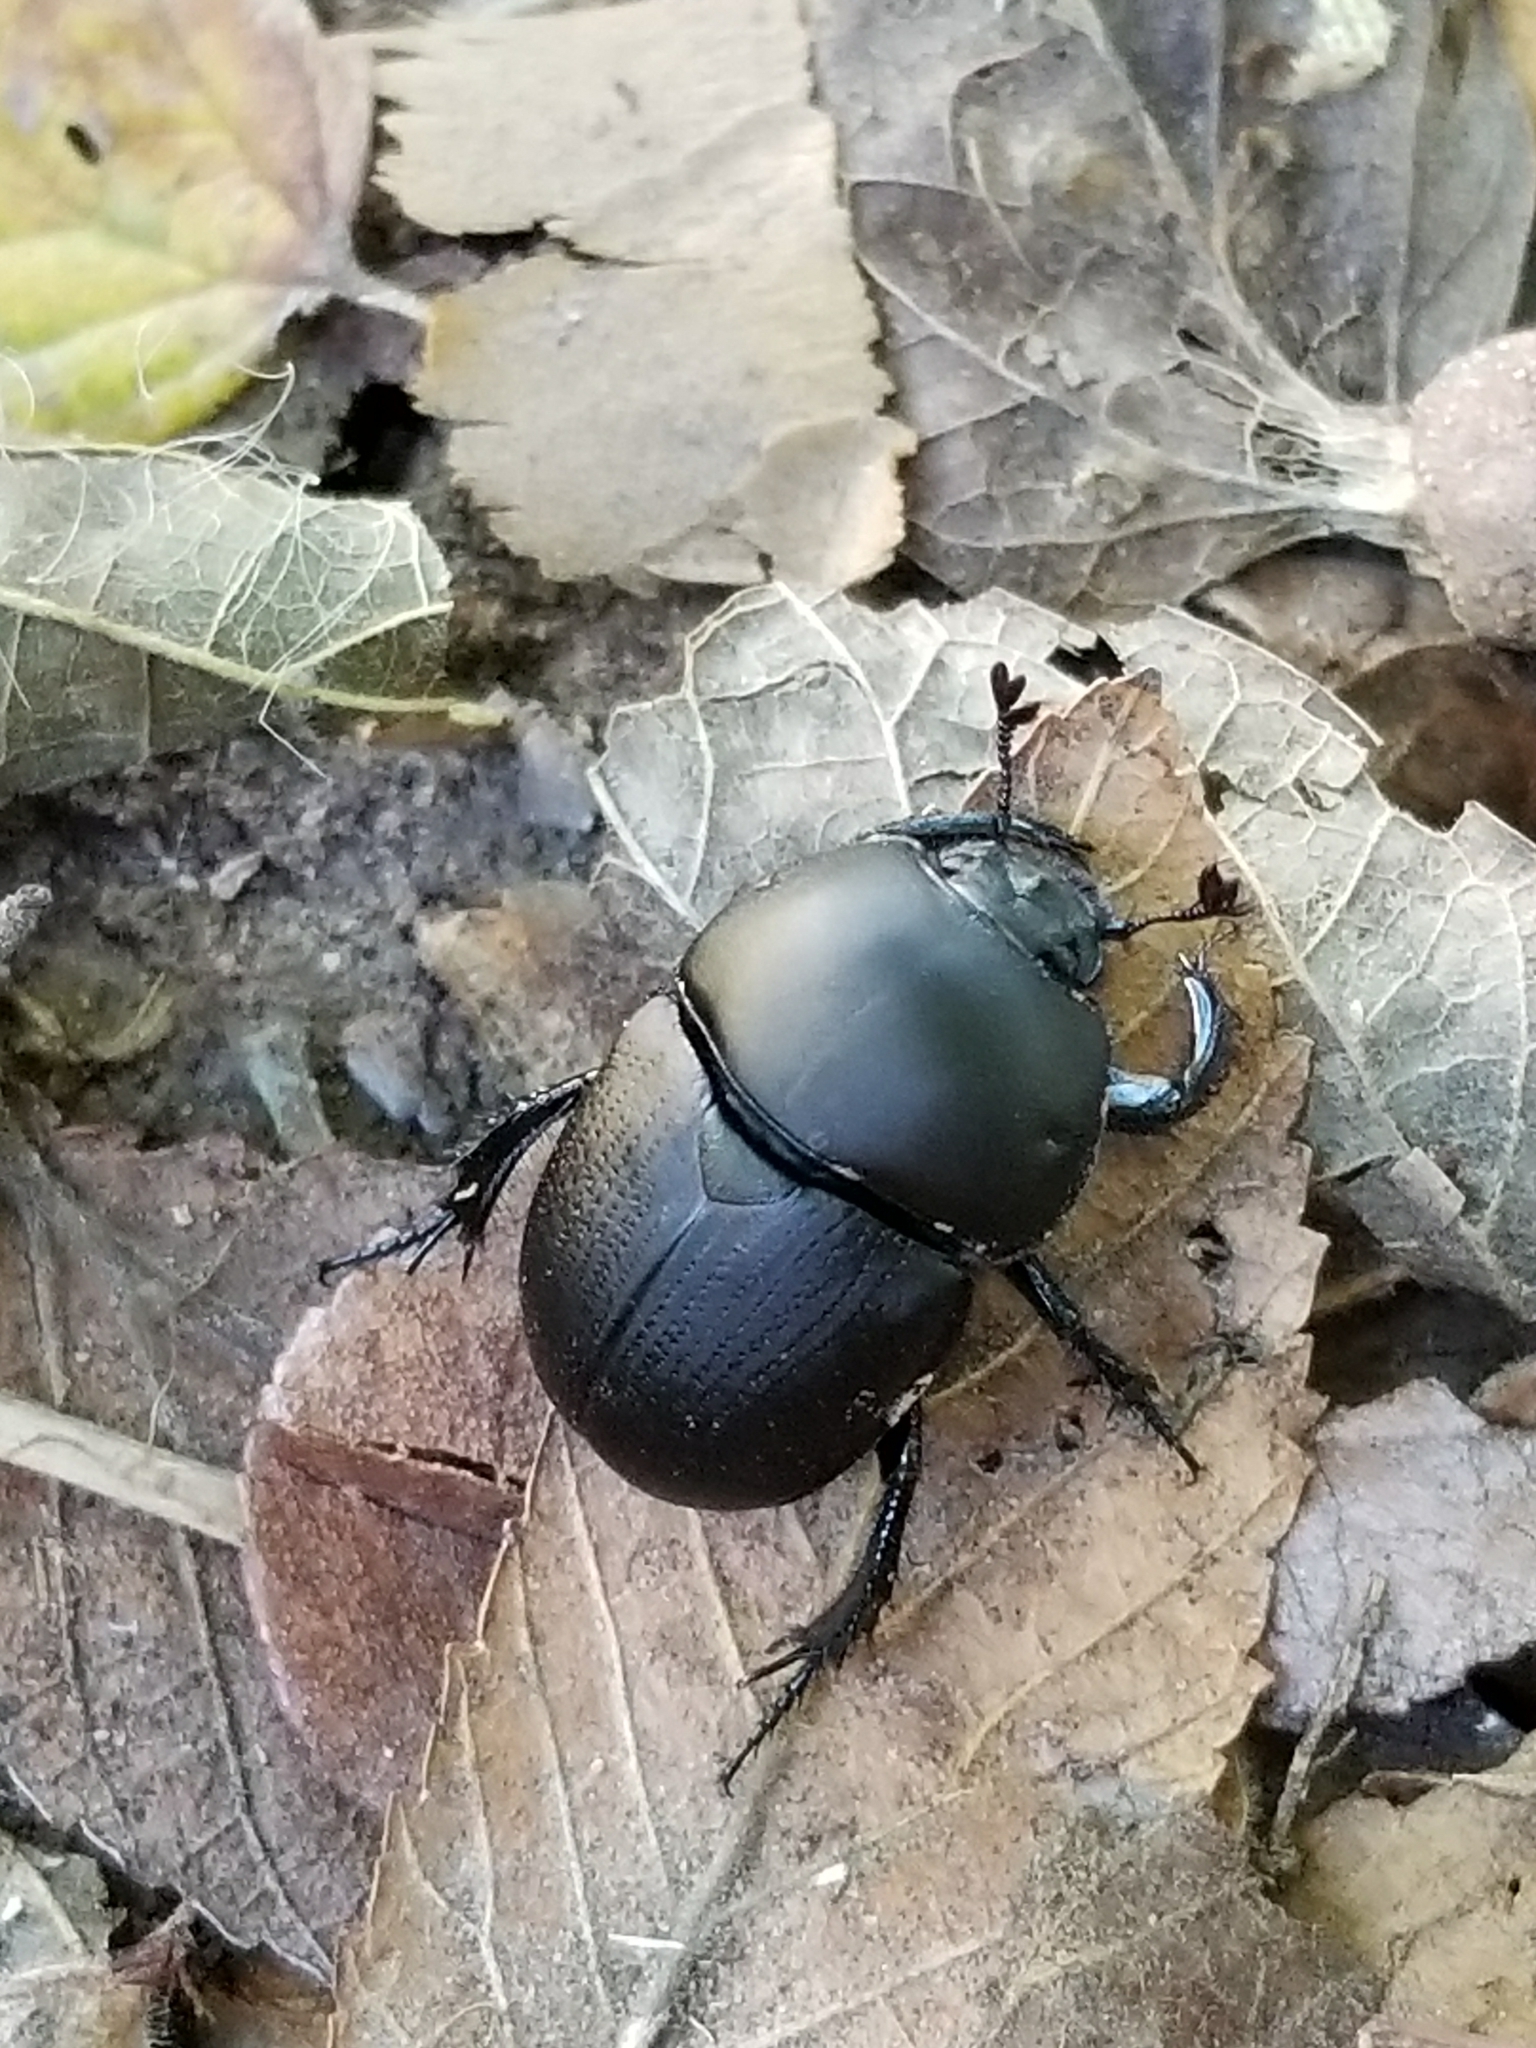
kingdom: Animalia
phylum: Arthropoda
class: Insecta
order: Coleoptera
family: Geotrupidae
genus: Geohowdenius
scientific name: Geohowdenius opacus
